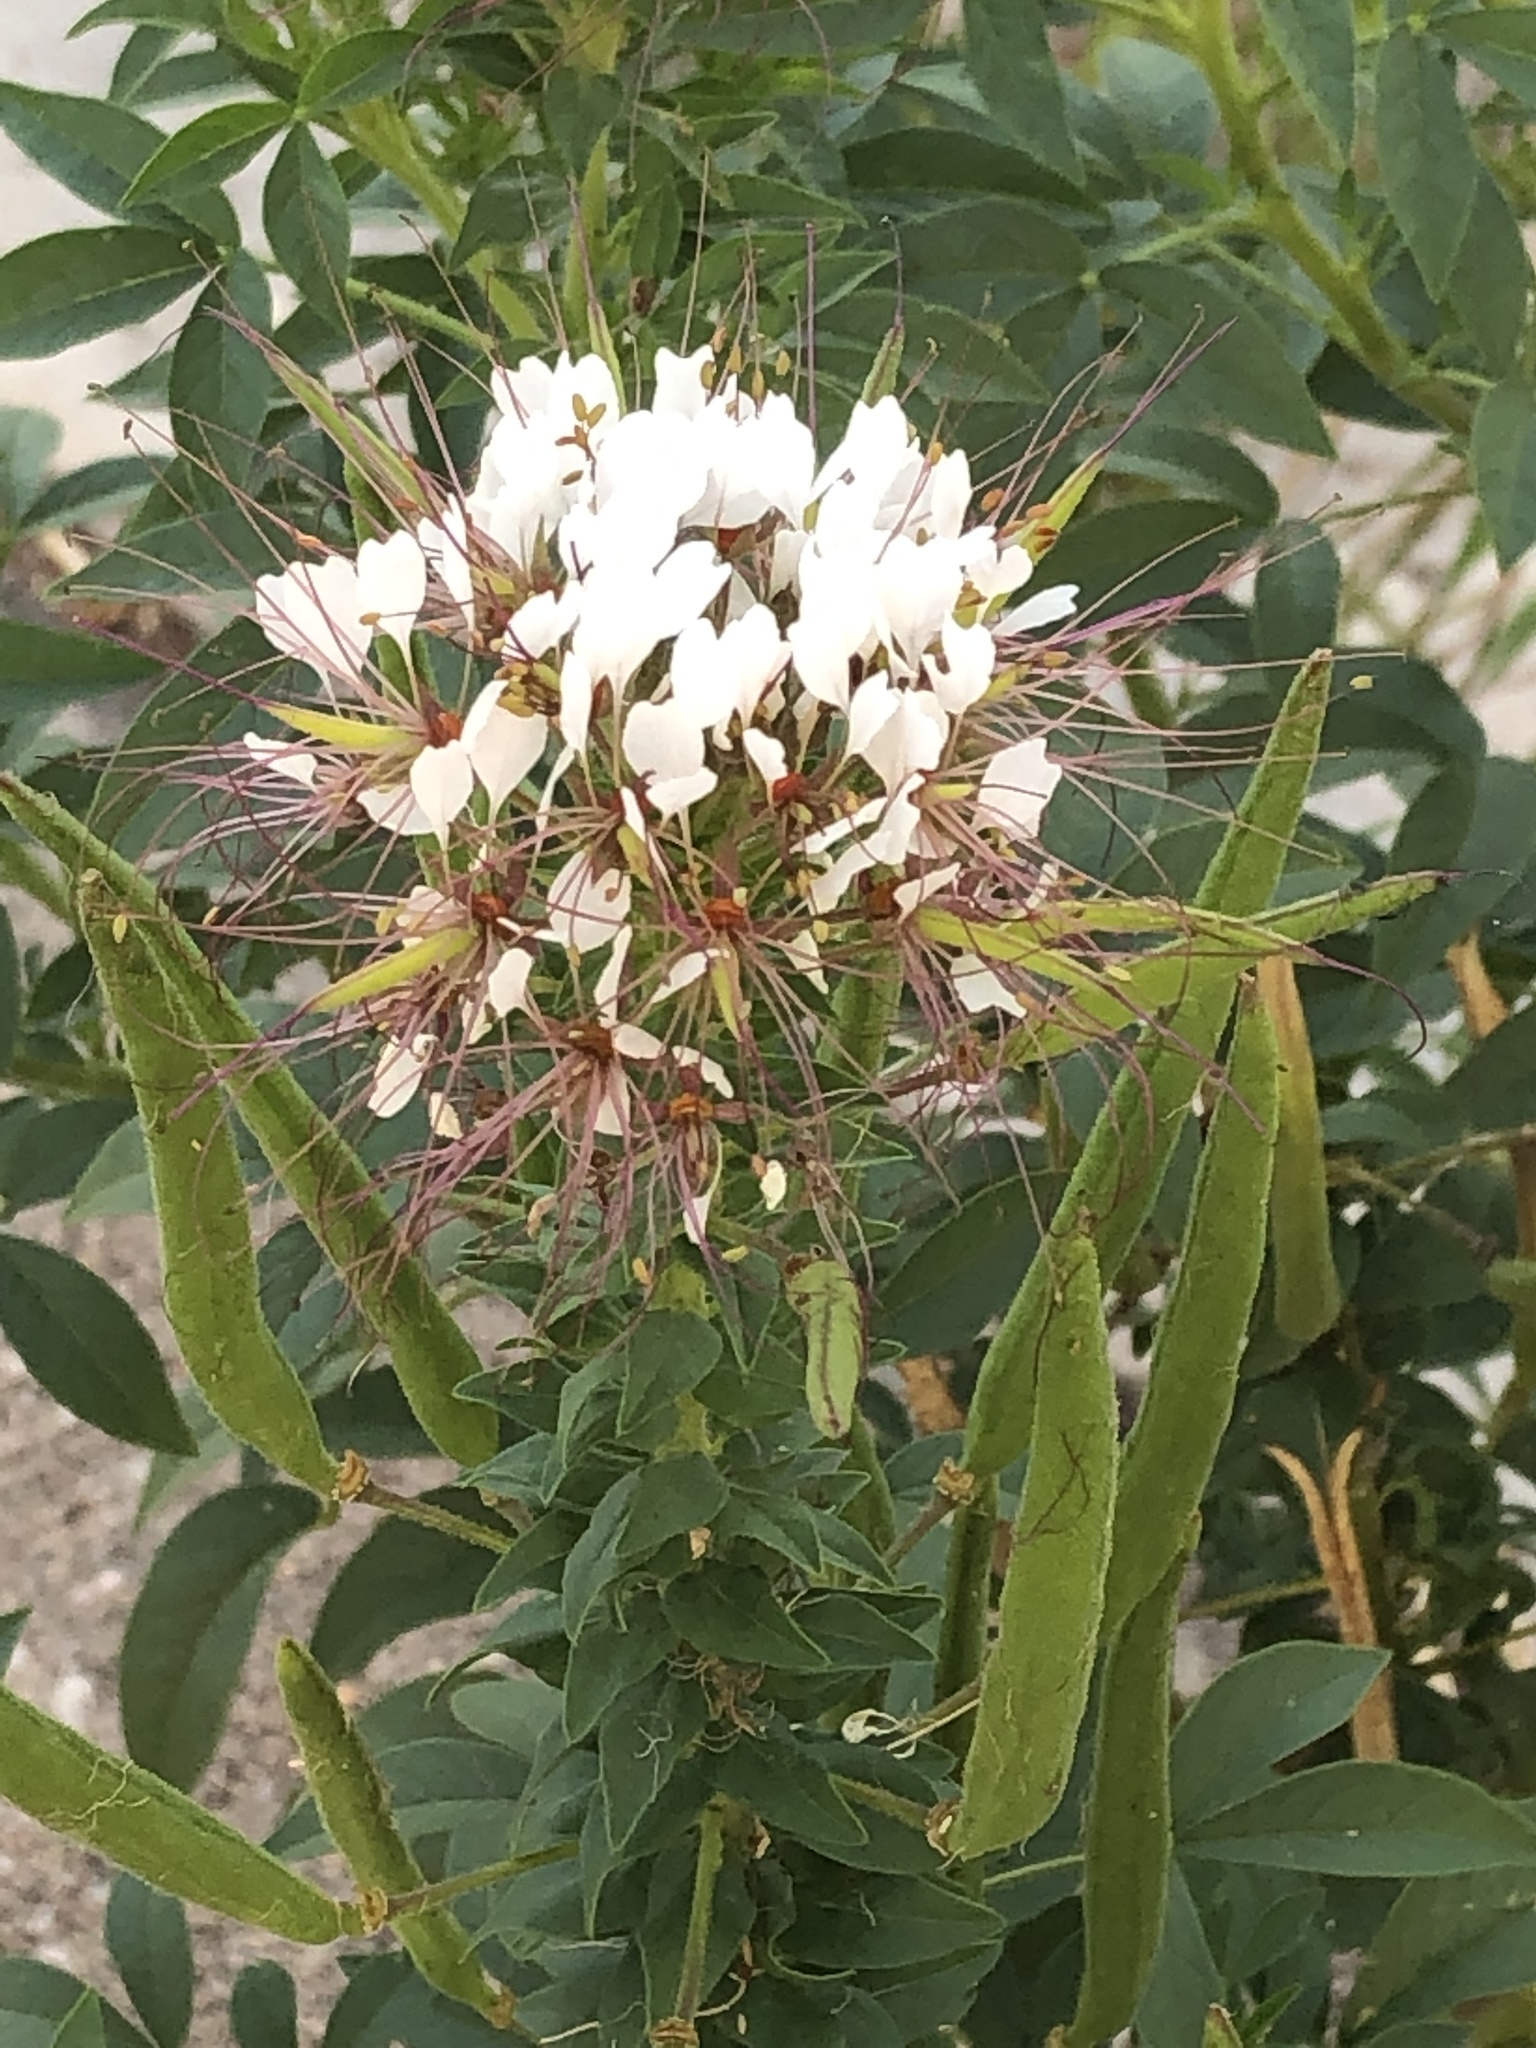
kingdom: Plantae
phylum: Tracheophyta
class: Magnoliopsida
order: Brassicales
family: Cleomaceae
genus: Polanisia
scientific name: Polanisia dodecandra
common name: Clammyweed
